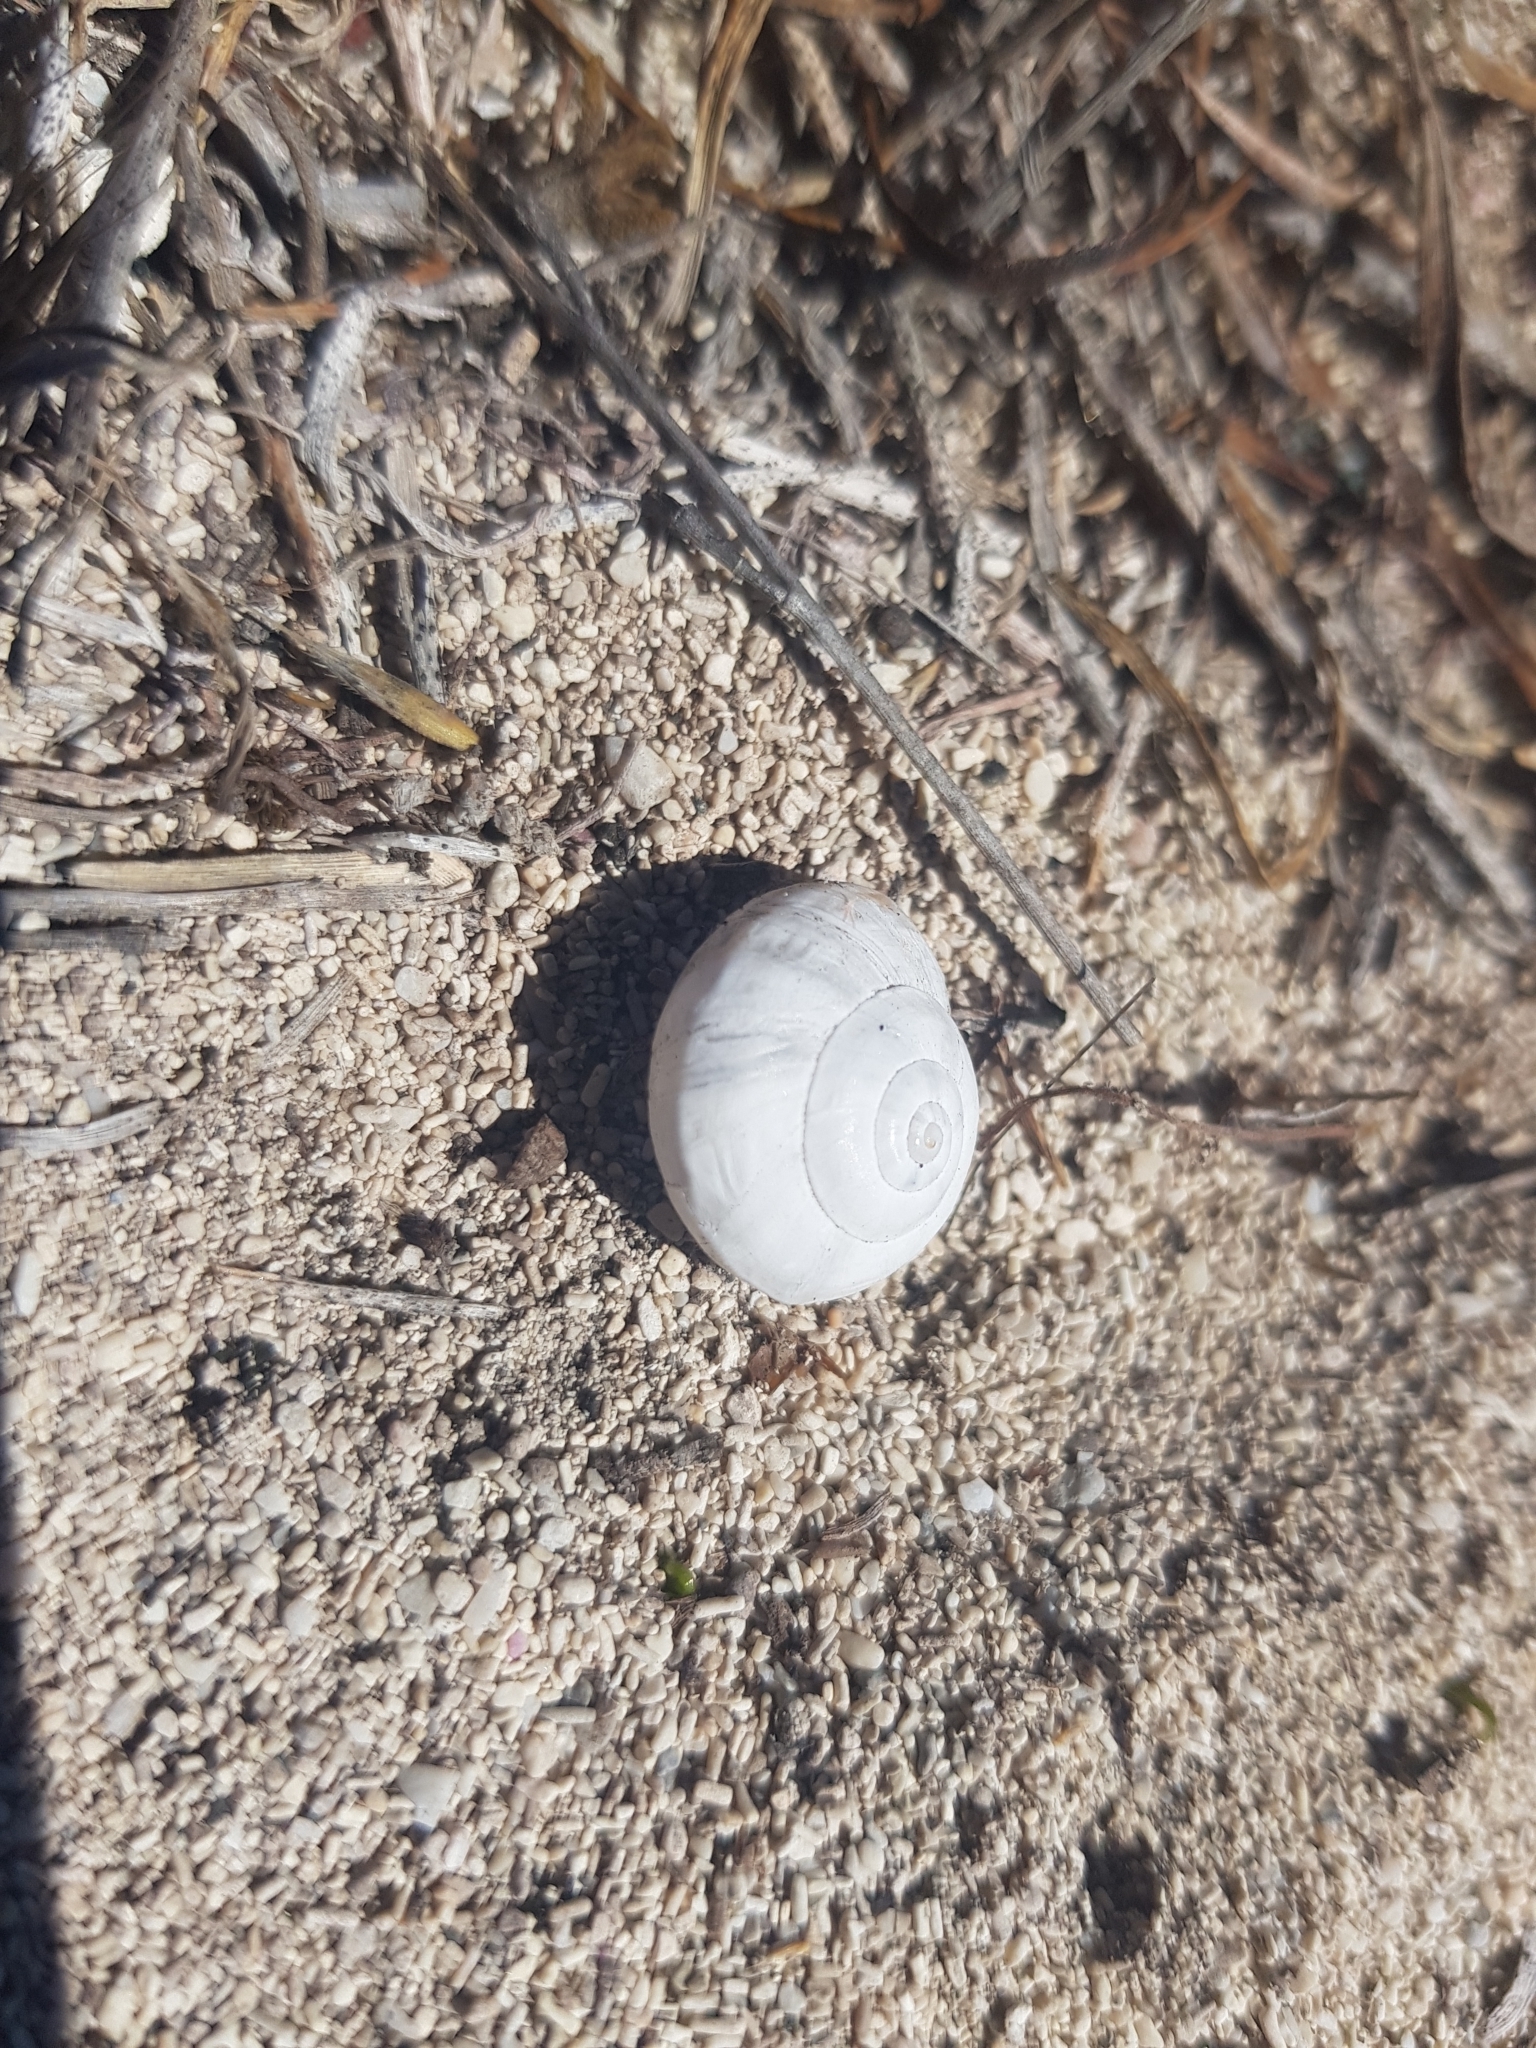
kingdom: Animalia
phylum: Mollusca
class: Gastropoda
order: Stylommatophora
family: Helicidae
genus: Theba
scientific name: Theba pisana
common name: White snail
